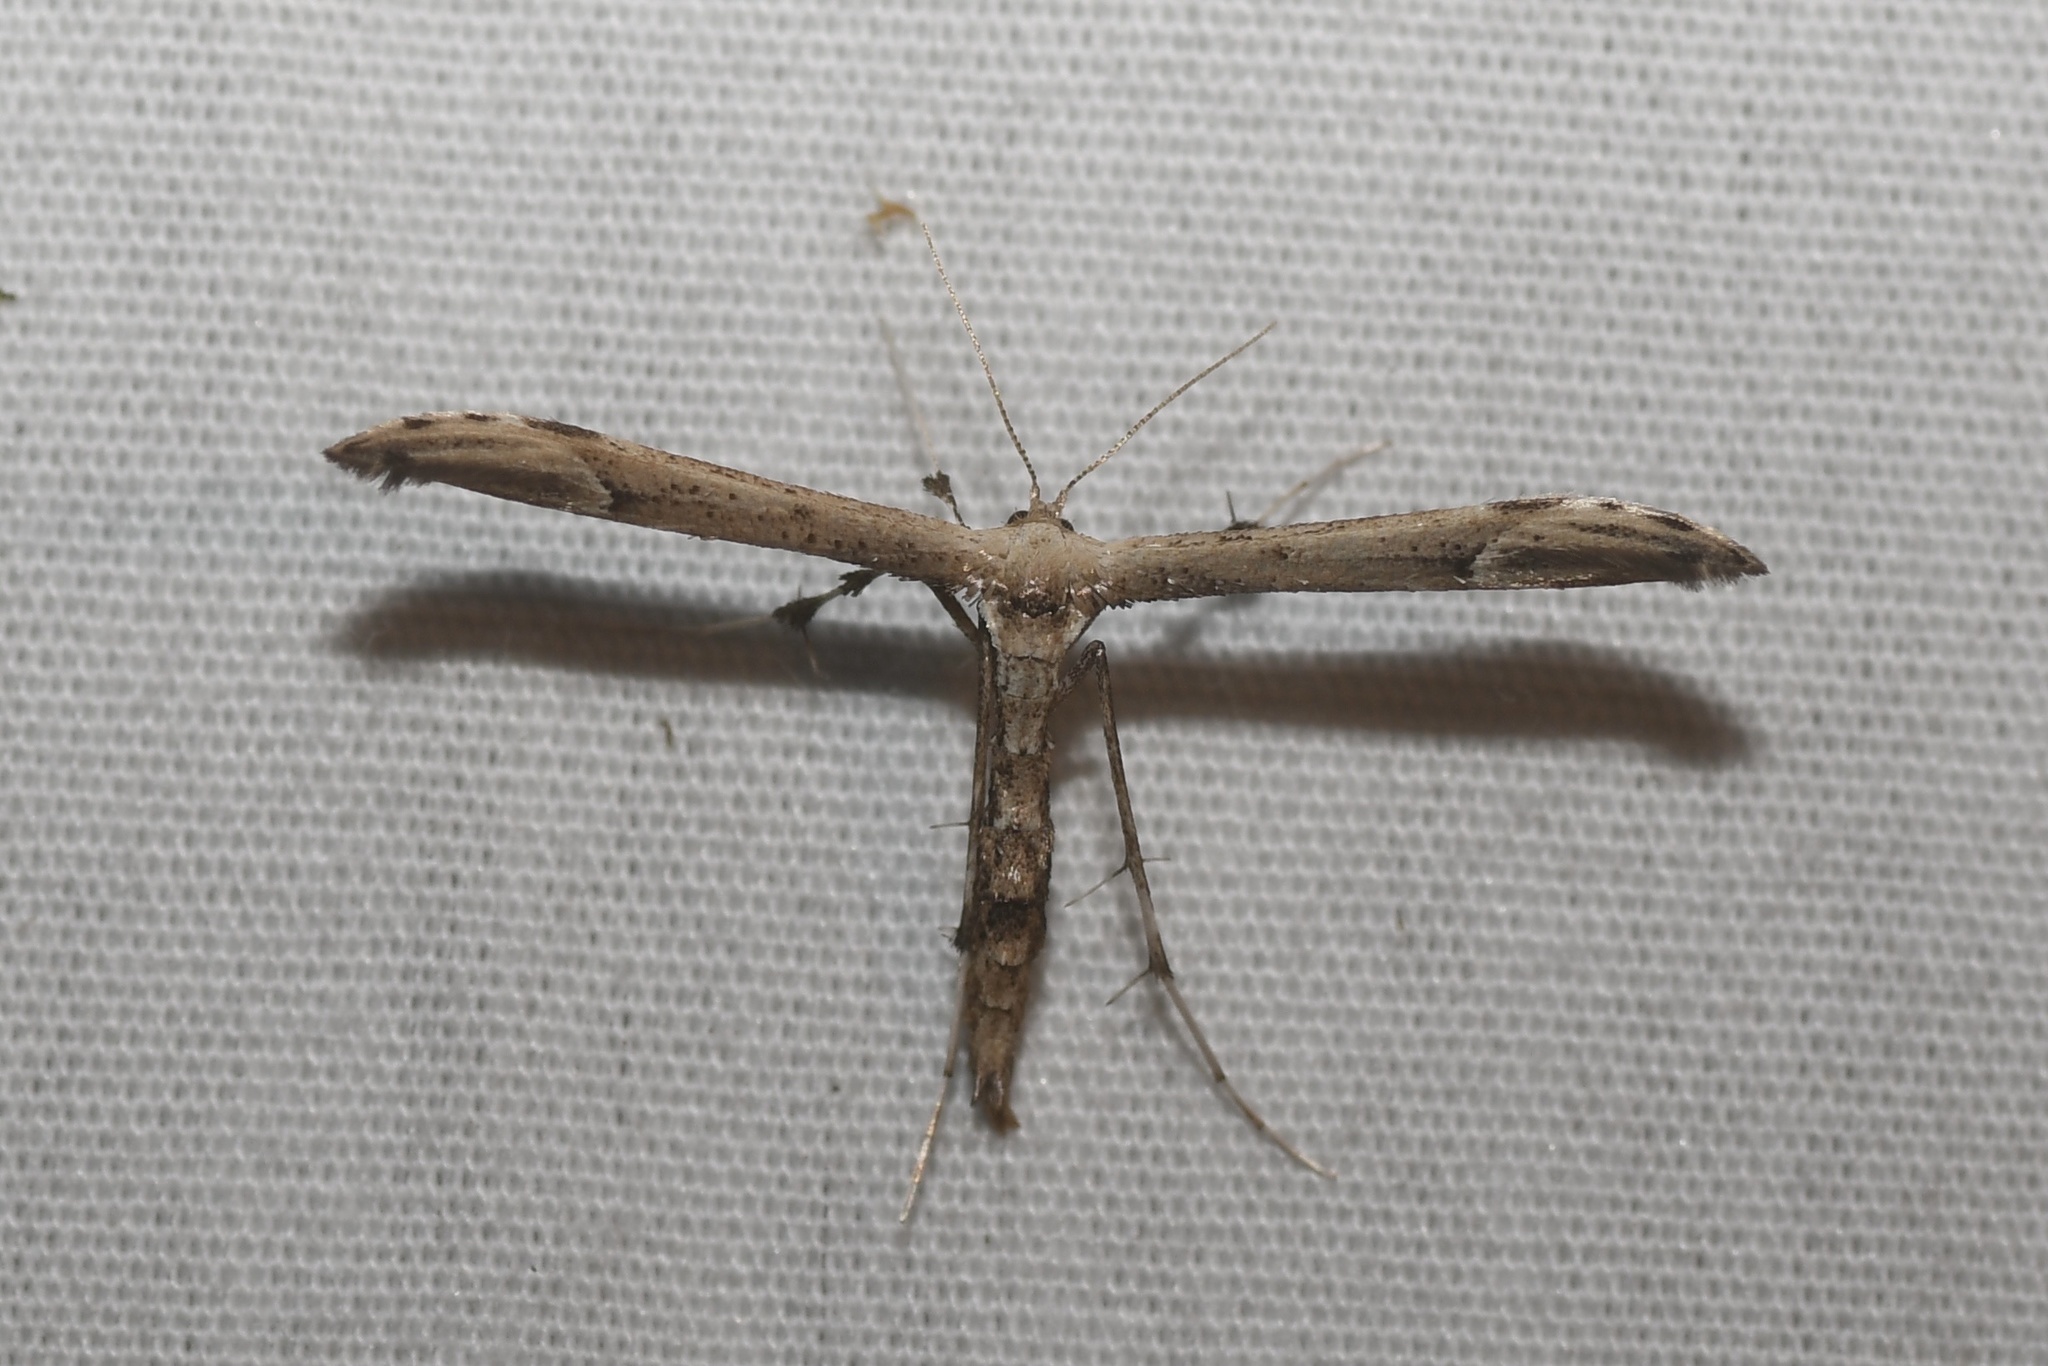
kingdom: Animalia
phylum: Arthropoda
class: Insecta
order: Lepidoptera
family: Pterophoridae
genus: Oidaematophorus
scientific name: Oidaematophorus eupatorii
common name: Eupatorium plume moth
